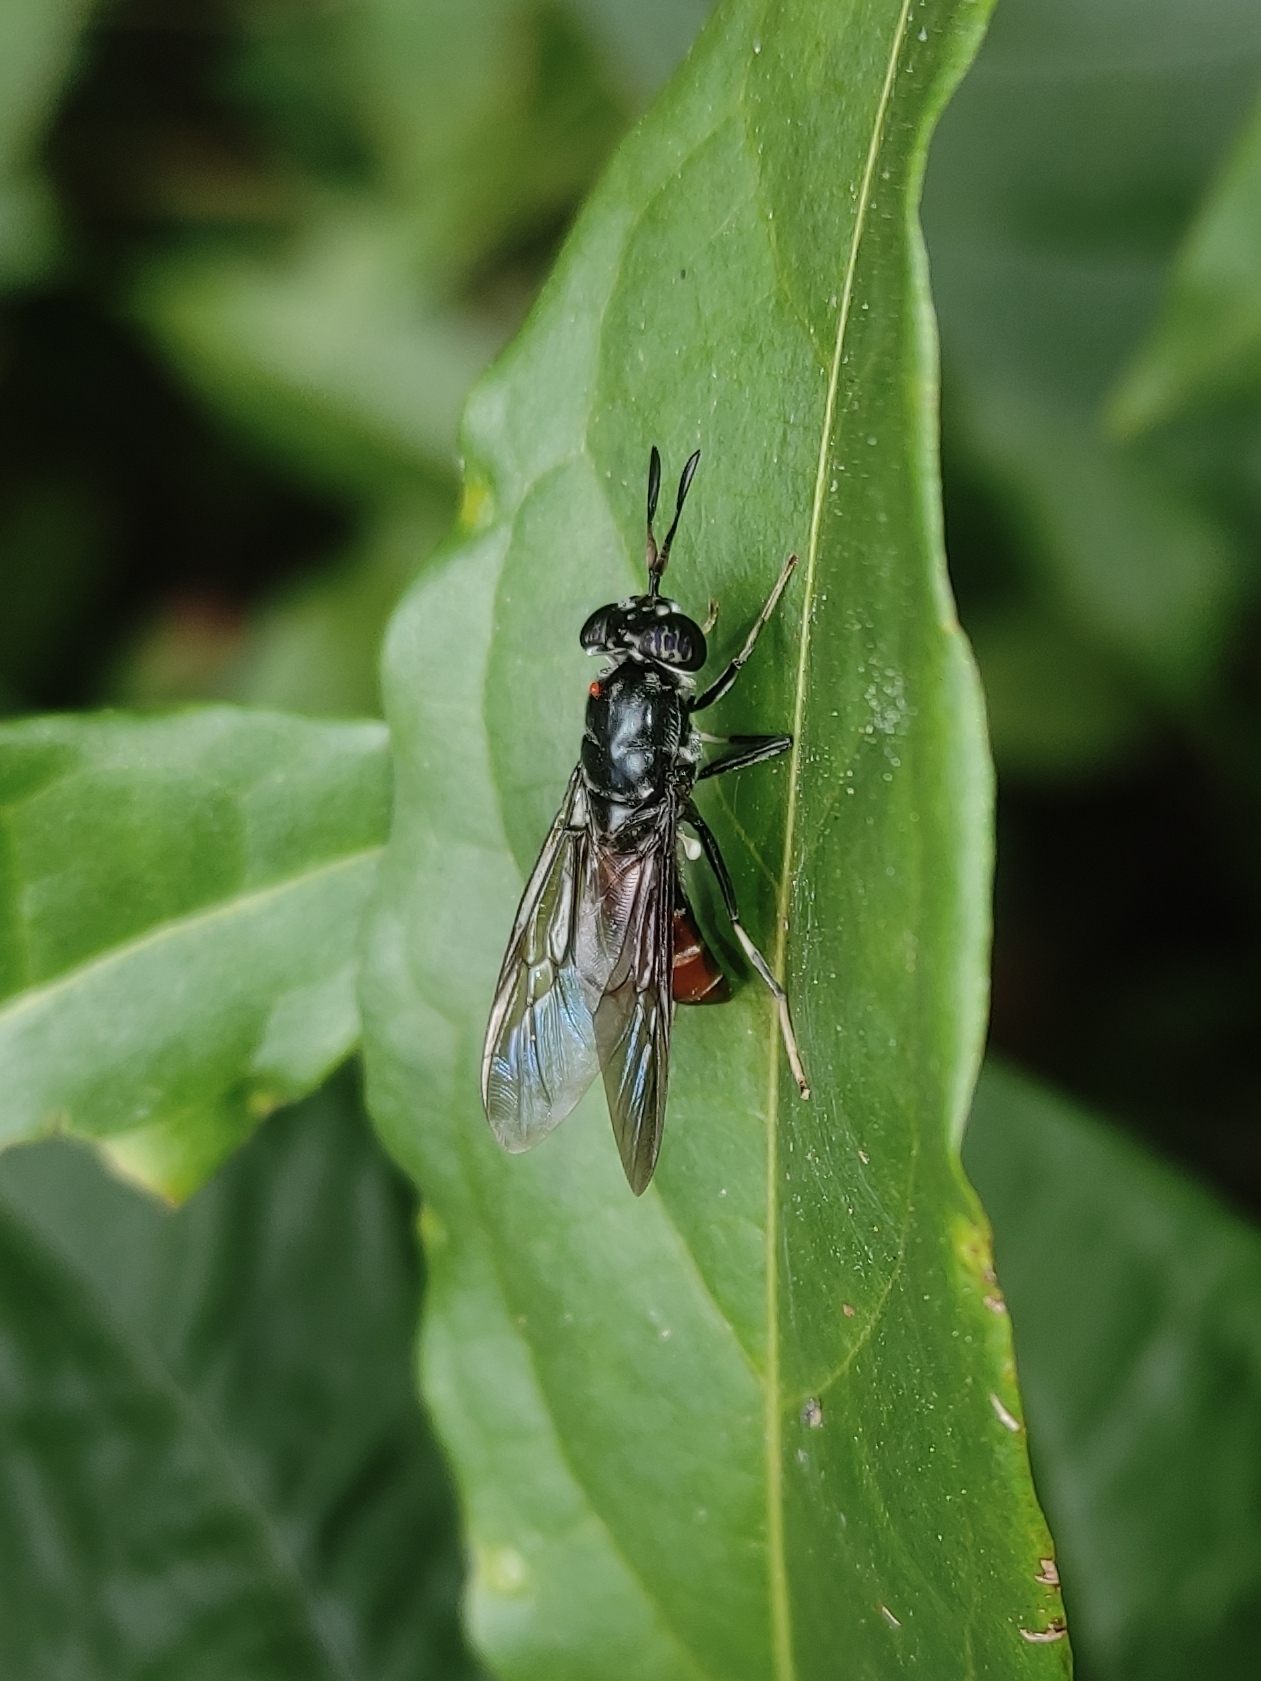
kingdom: Animalia
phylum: Arthropoda
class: Insecta
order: Diptera
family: Stratiomyidae
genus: Hermetia
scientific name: Hermetia illucens
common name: Black soldier fly
